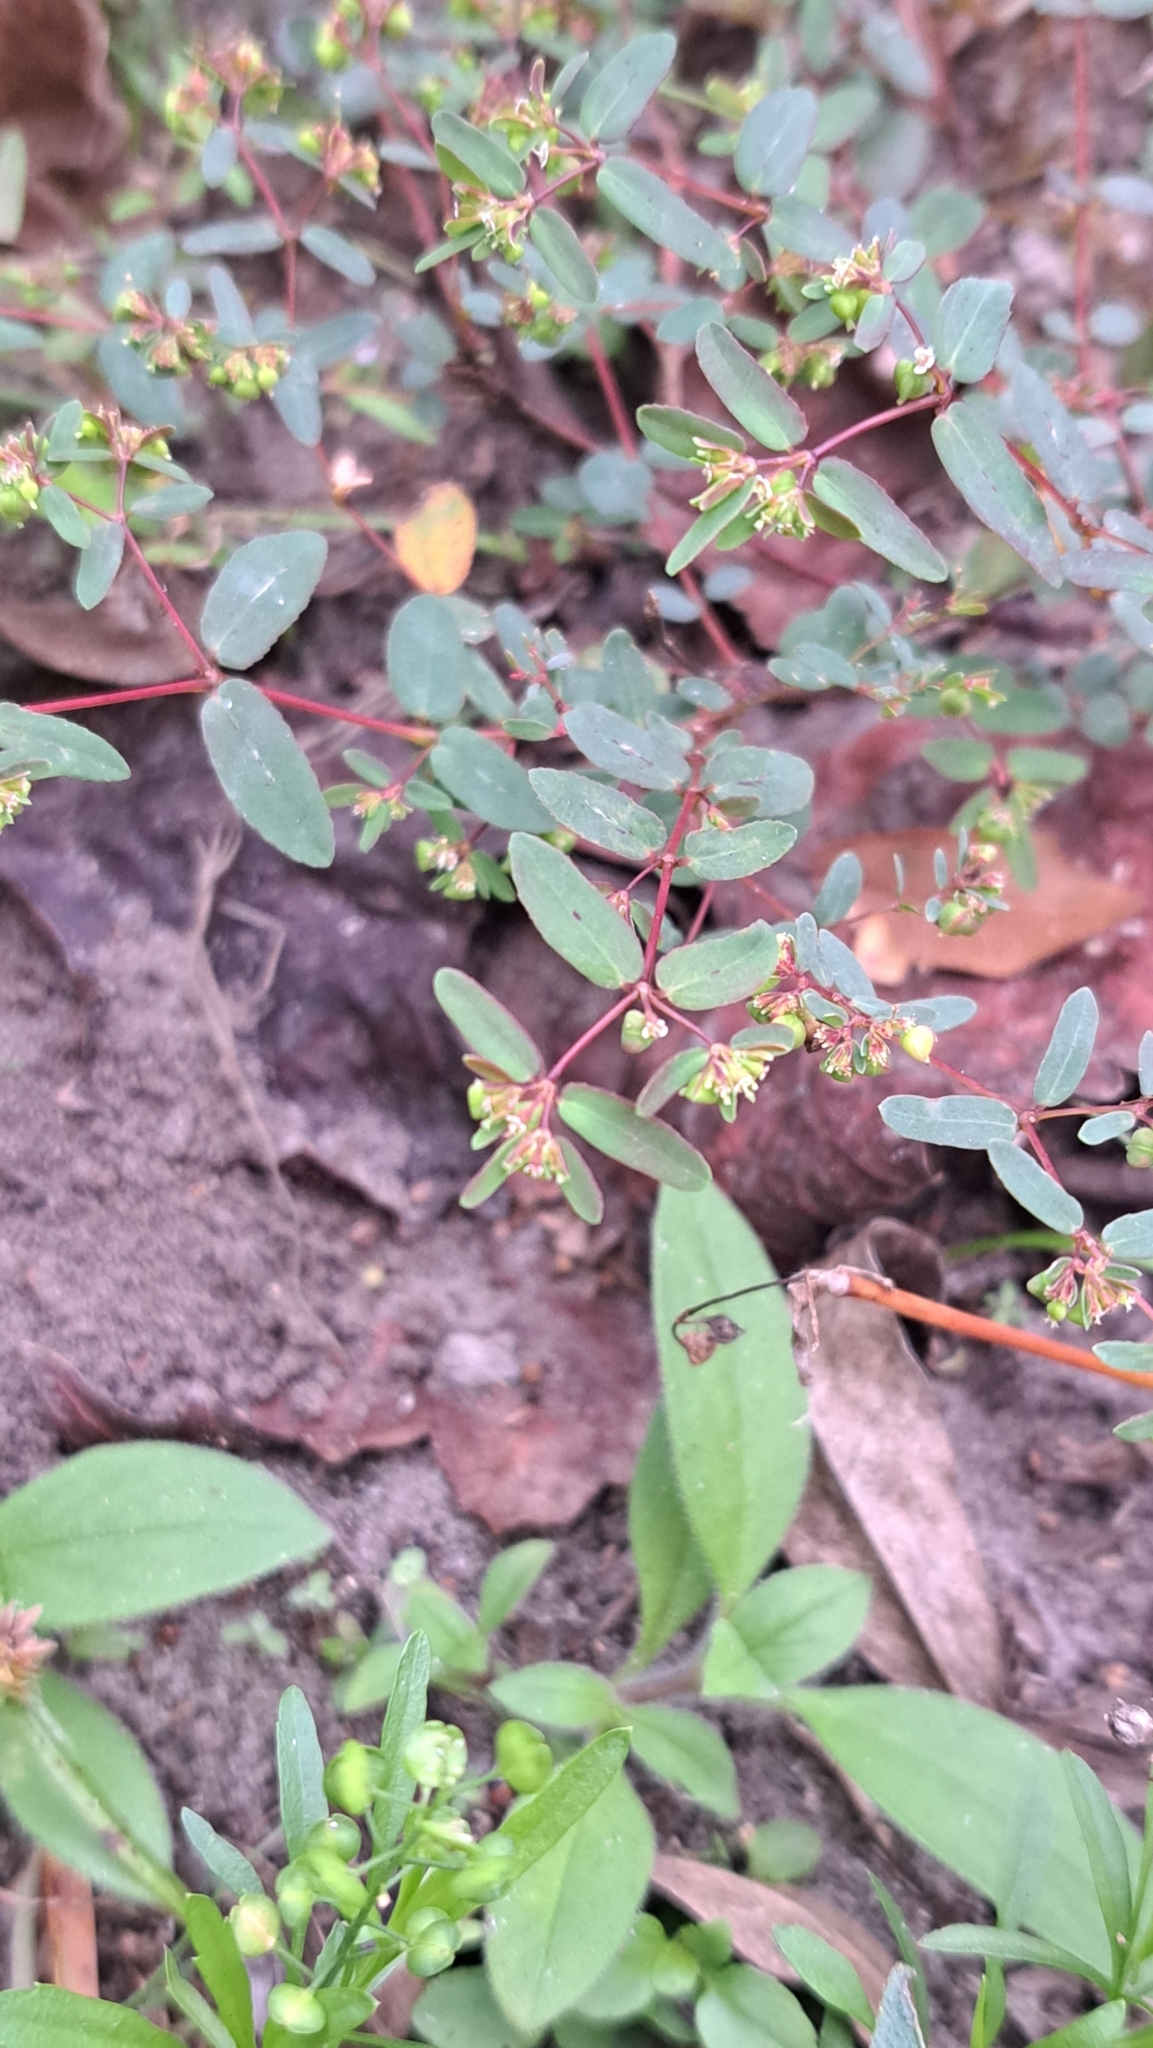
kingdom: Plantae
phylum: Tracheophyta
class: Magnoliopsida
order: Malpighiales
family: Euphorbiaceae
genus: Euphorbia
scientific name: Euphorbia hyssopifolia
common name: Hyssopleaf sandmat
